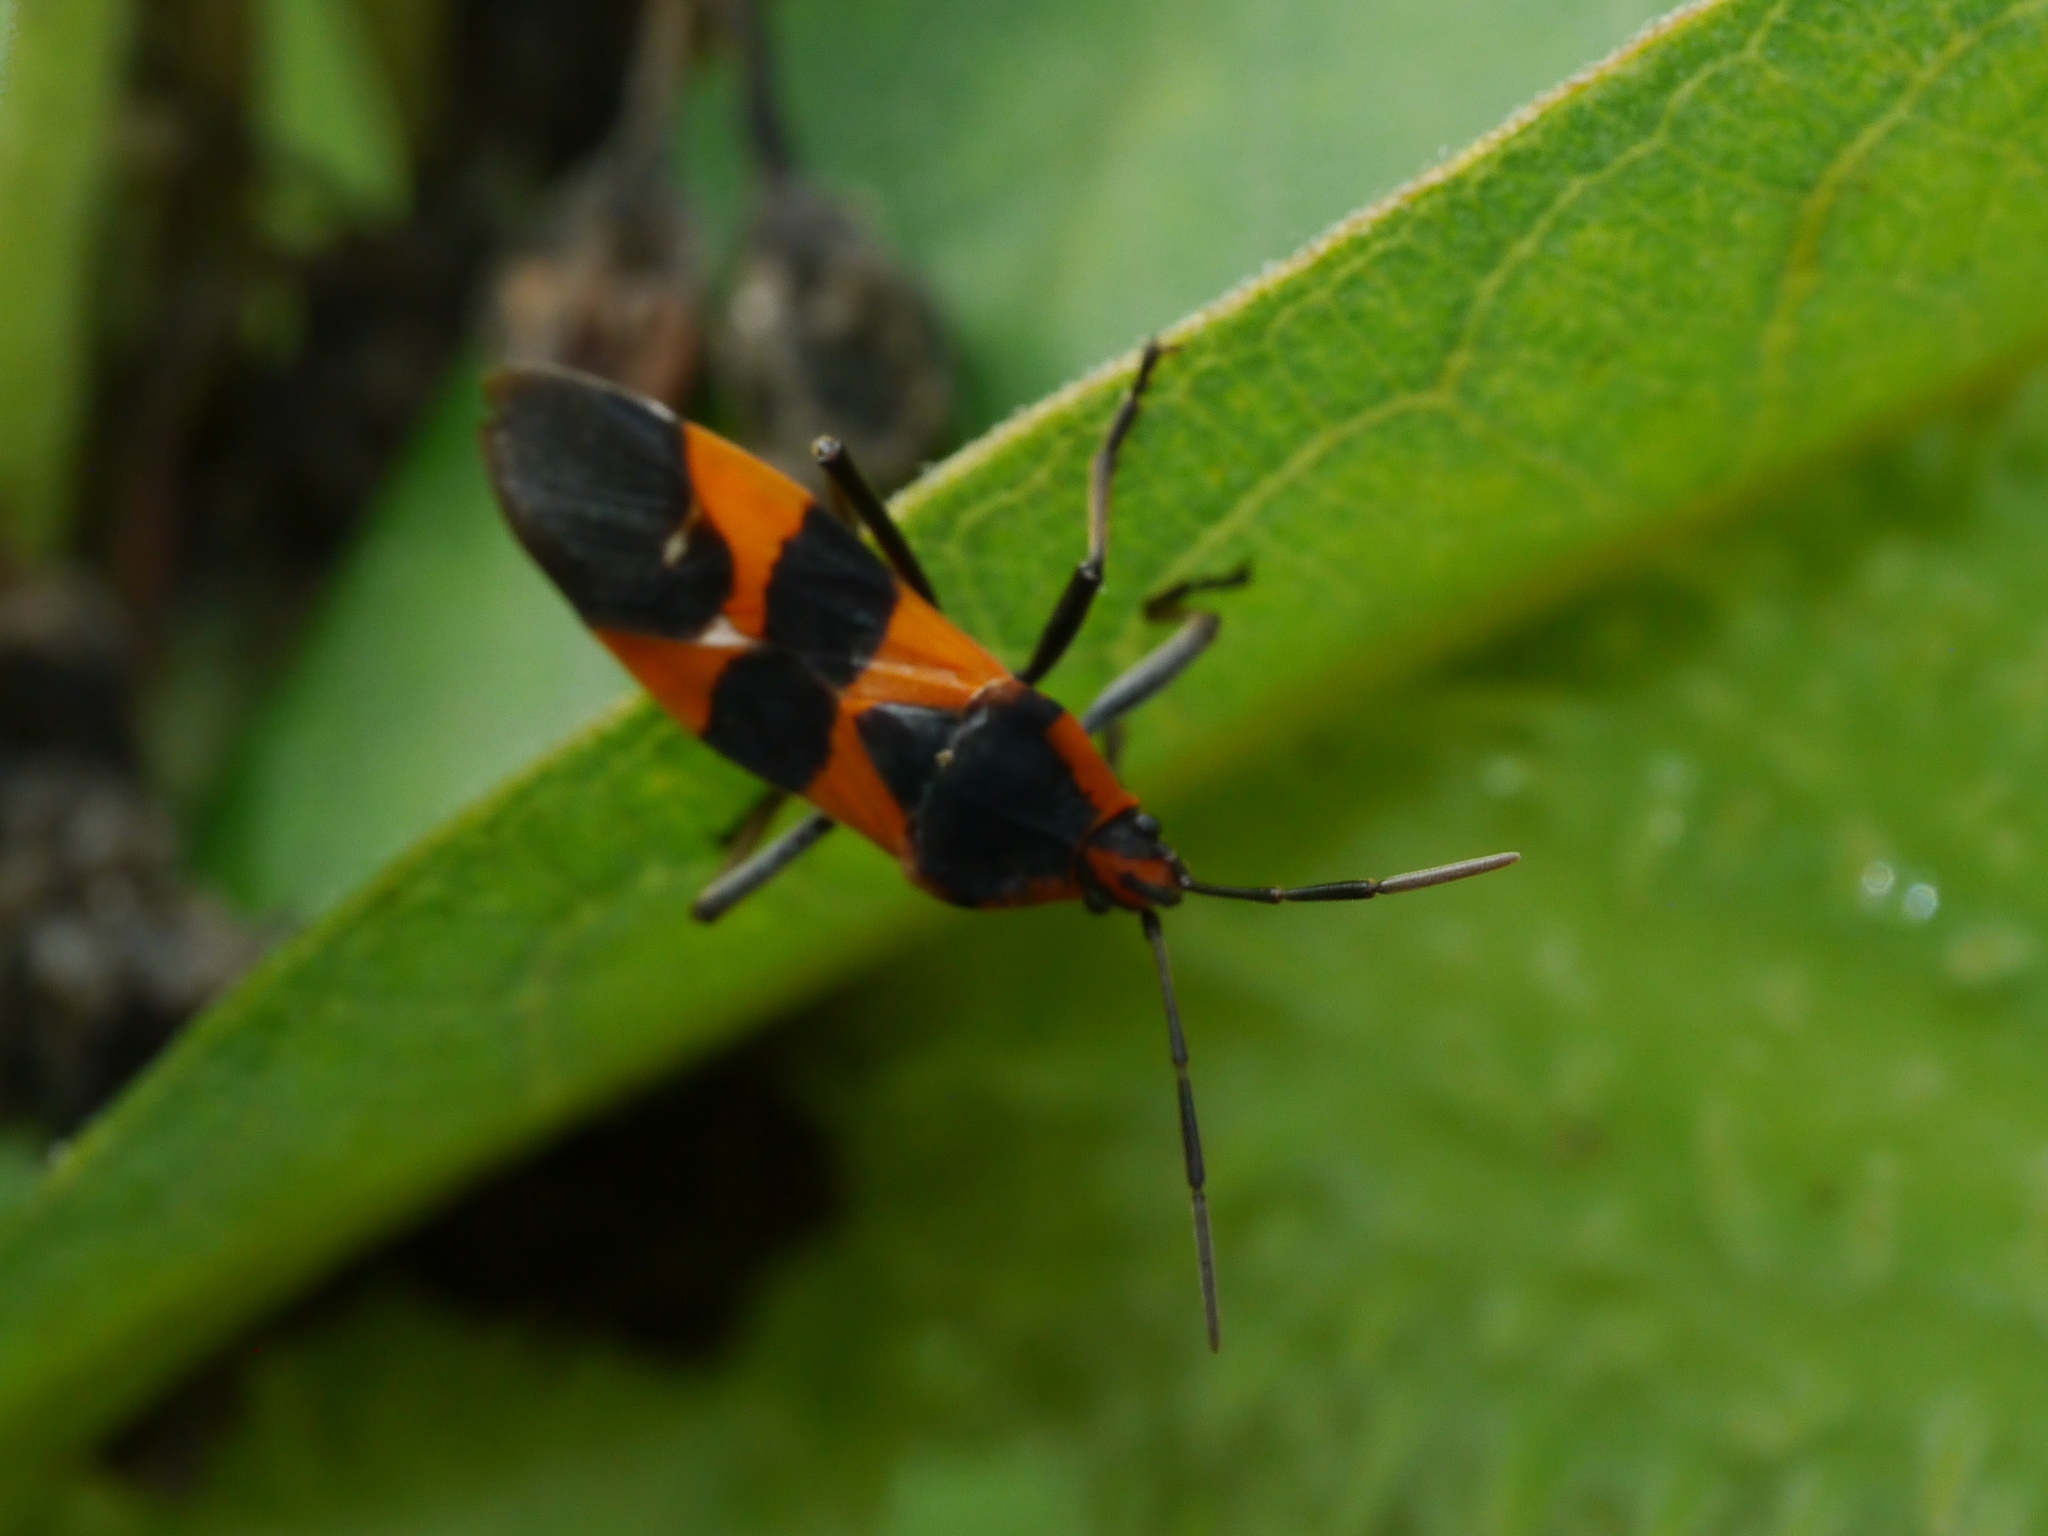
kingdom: Animalia
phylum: Arthropoda
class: Insecta
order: Hemiptera
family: Lygaeidae
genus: Oncopeltus
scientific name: Oncopeltus fasciatus
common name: Large milkweed bug
